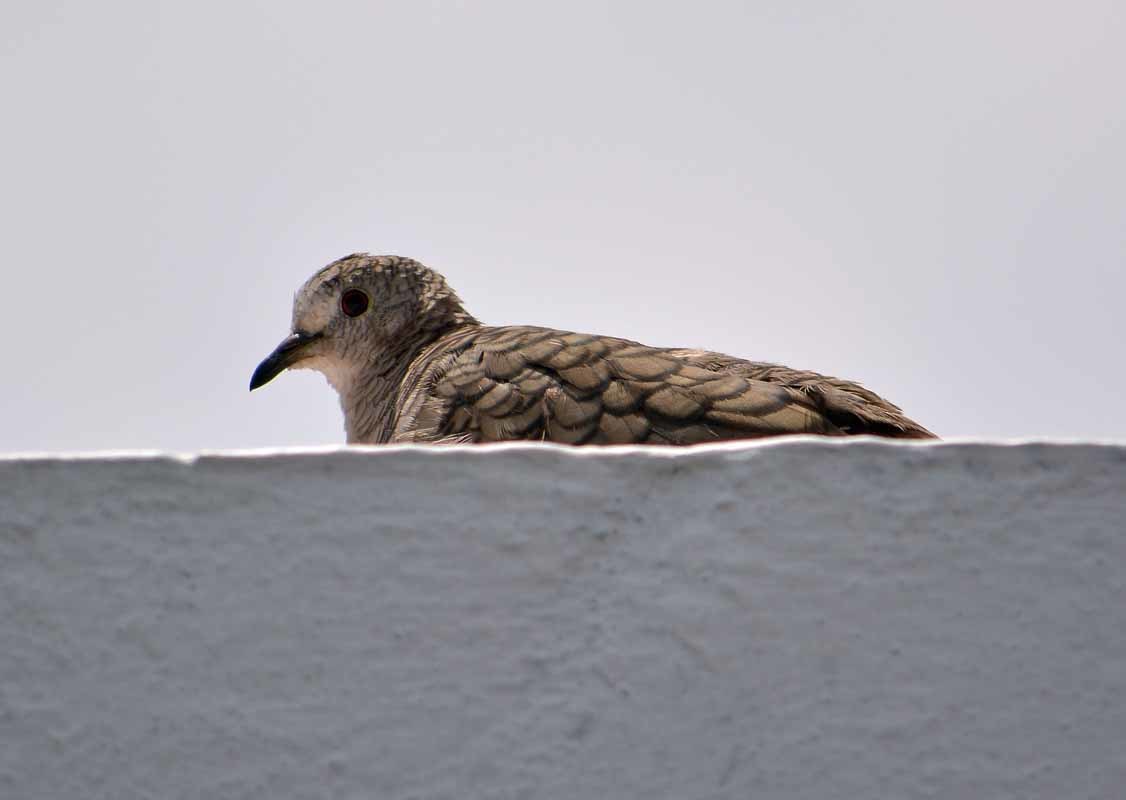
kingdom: Animalia
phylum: Chordata
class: Aves
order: Columbiformes
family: Columbidae
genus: Columbina
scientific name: Columbina inca
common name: Inca dove
